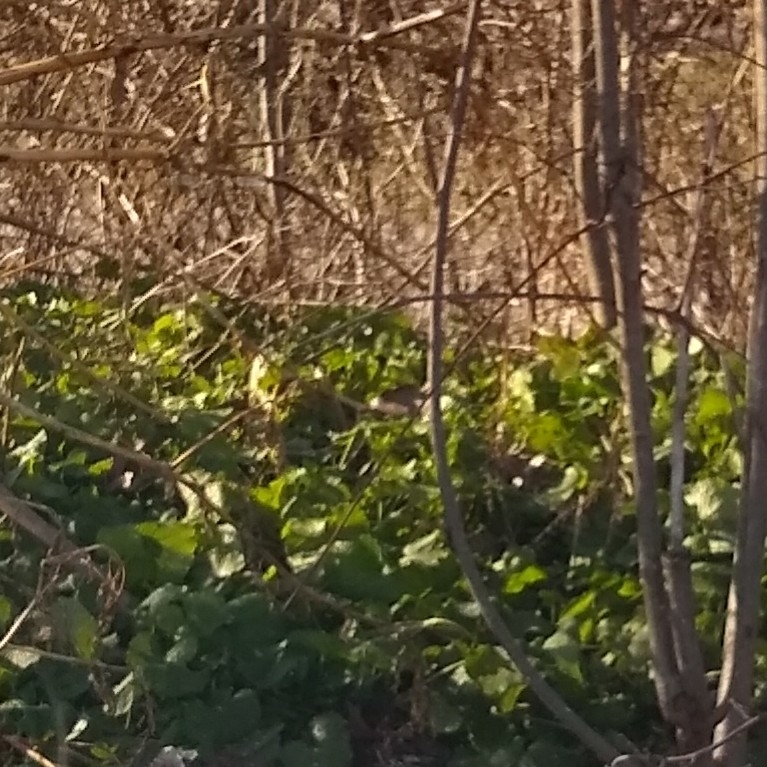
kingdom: Plantae
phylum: Tracheophyta
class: Magnoliopsida
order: Brassicales
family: Brassicaceae
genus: Alliaria
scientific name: Alliaria petiolata
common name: Garlic mustard
